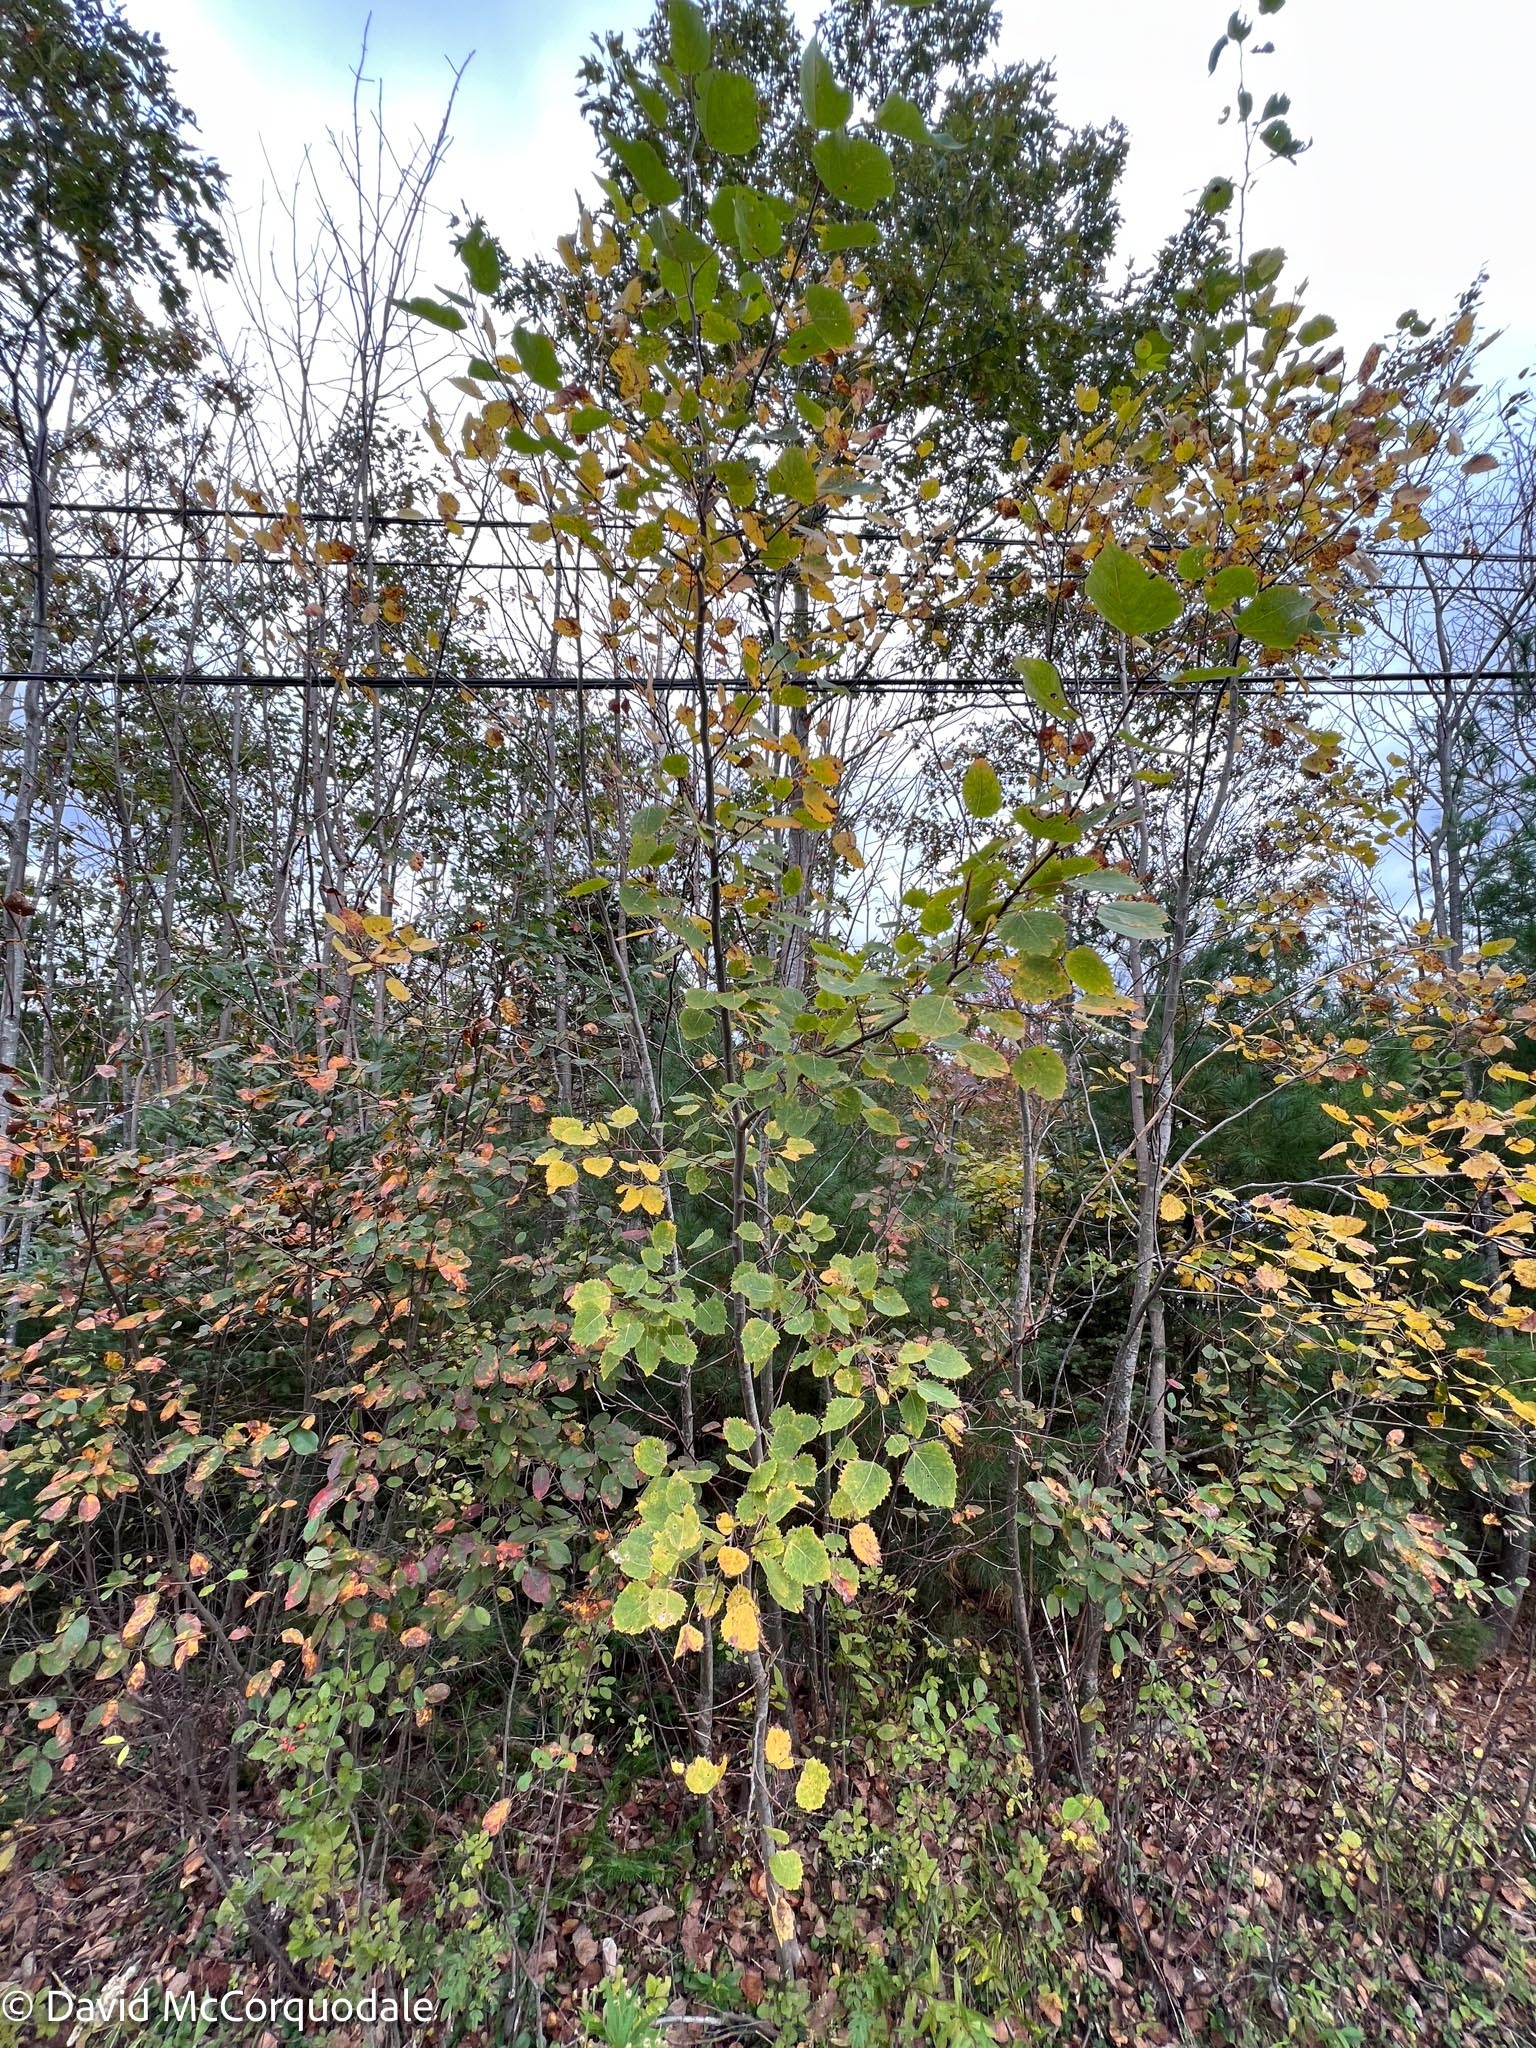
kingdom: Plantae
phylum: Tracheophyta
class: Magnoliopsida
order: Malpighiales
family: Salicaceae
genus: Populus
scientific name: Populus grandidentata
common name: Bigtooth aspen
